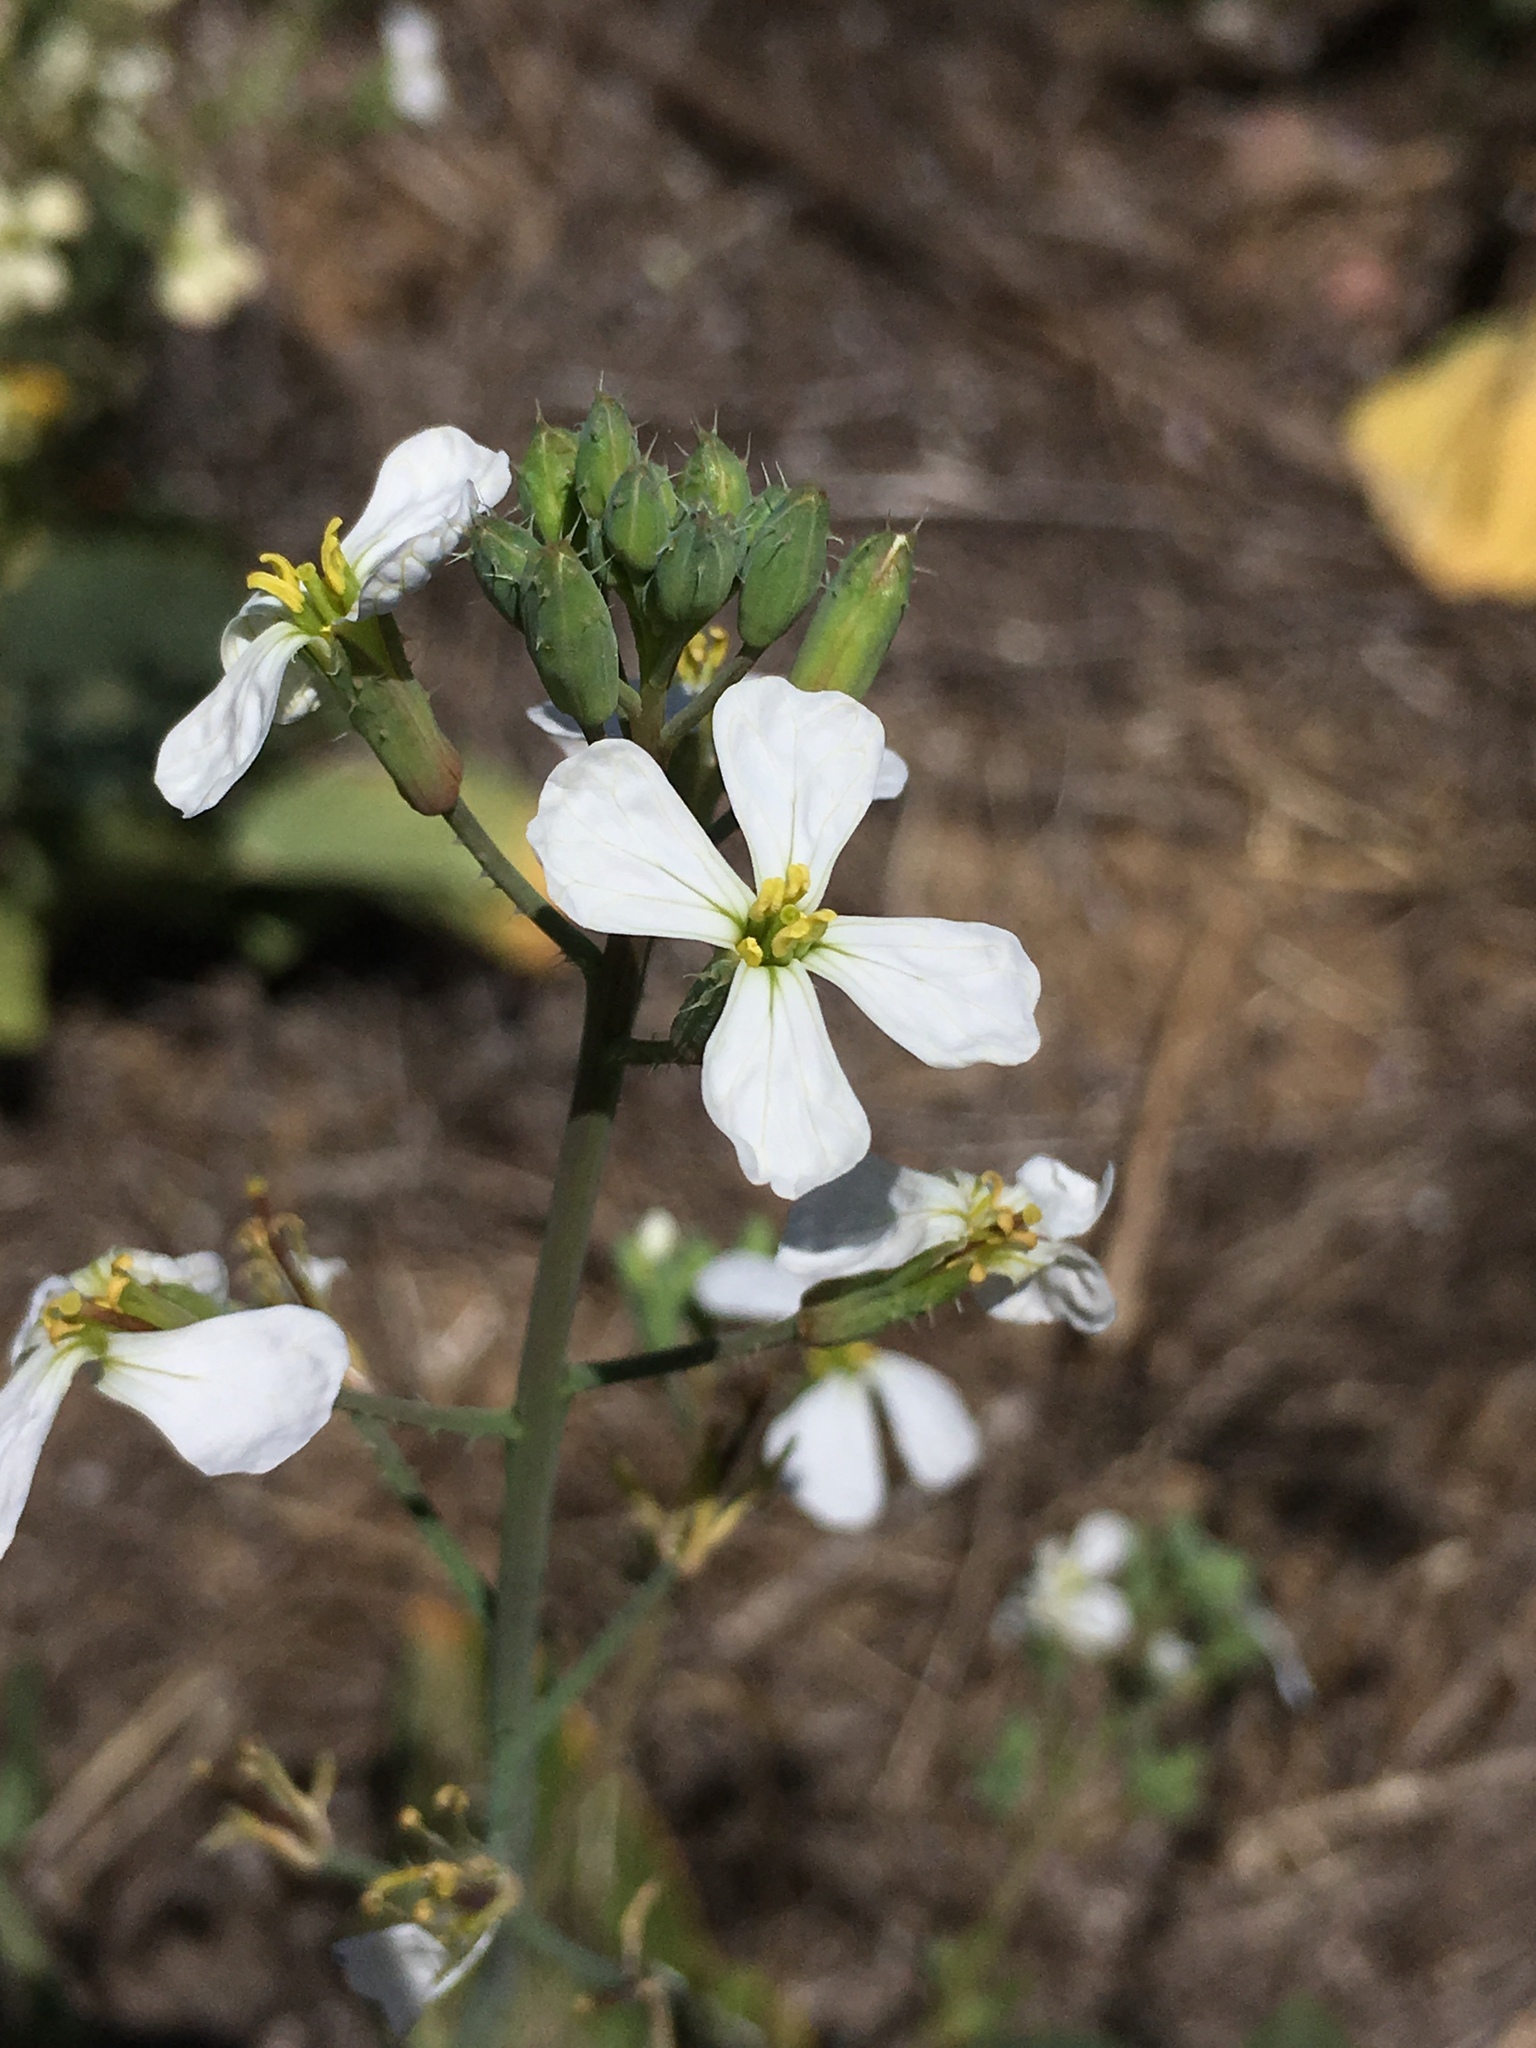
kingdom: Plantae
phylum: Tracheophyta
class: Magnoliopsida
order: Brassicales
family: Brassicaceae
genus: Raphanus
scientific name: Raphanus sativus
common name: Cultivated radish
